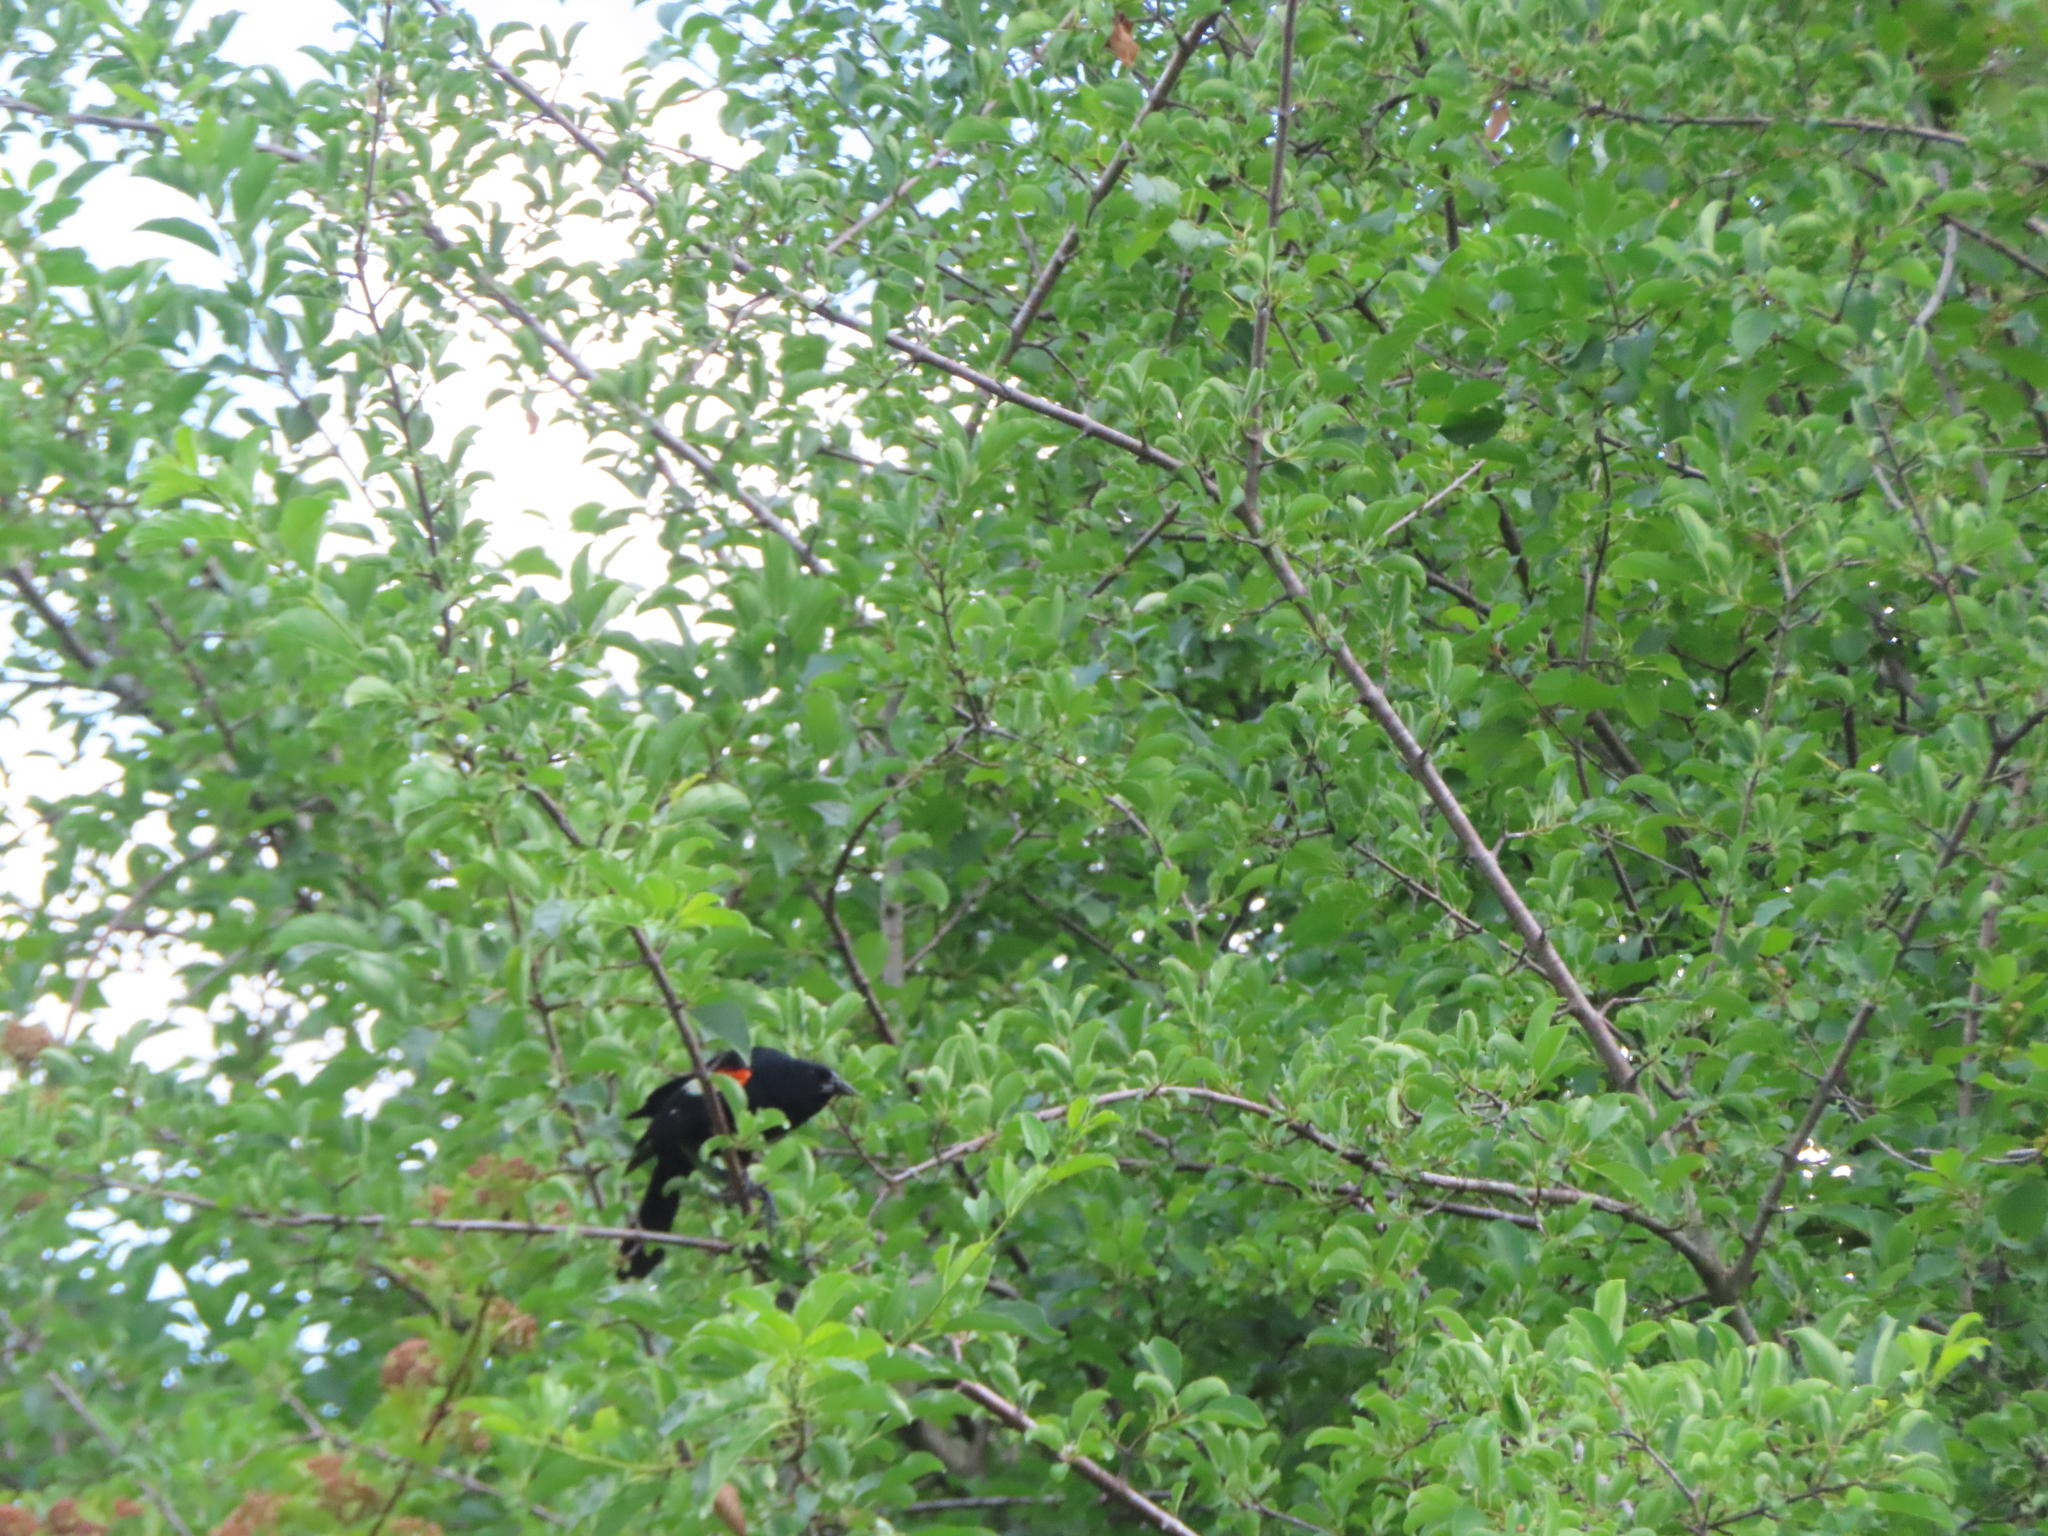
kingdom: Animalia
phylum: Chordata
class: Aves
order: Passeriformes
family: Icteridae
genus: Agelaius
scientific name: Agelaius phoeniceus
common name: Red-winged blackbird
